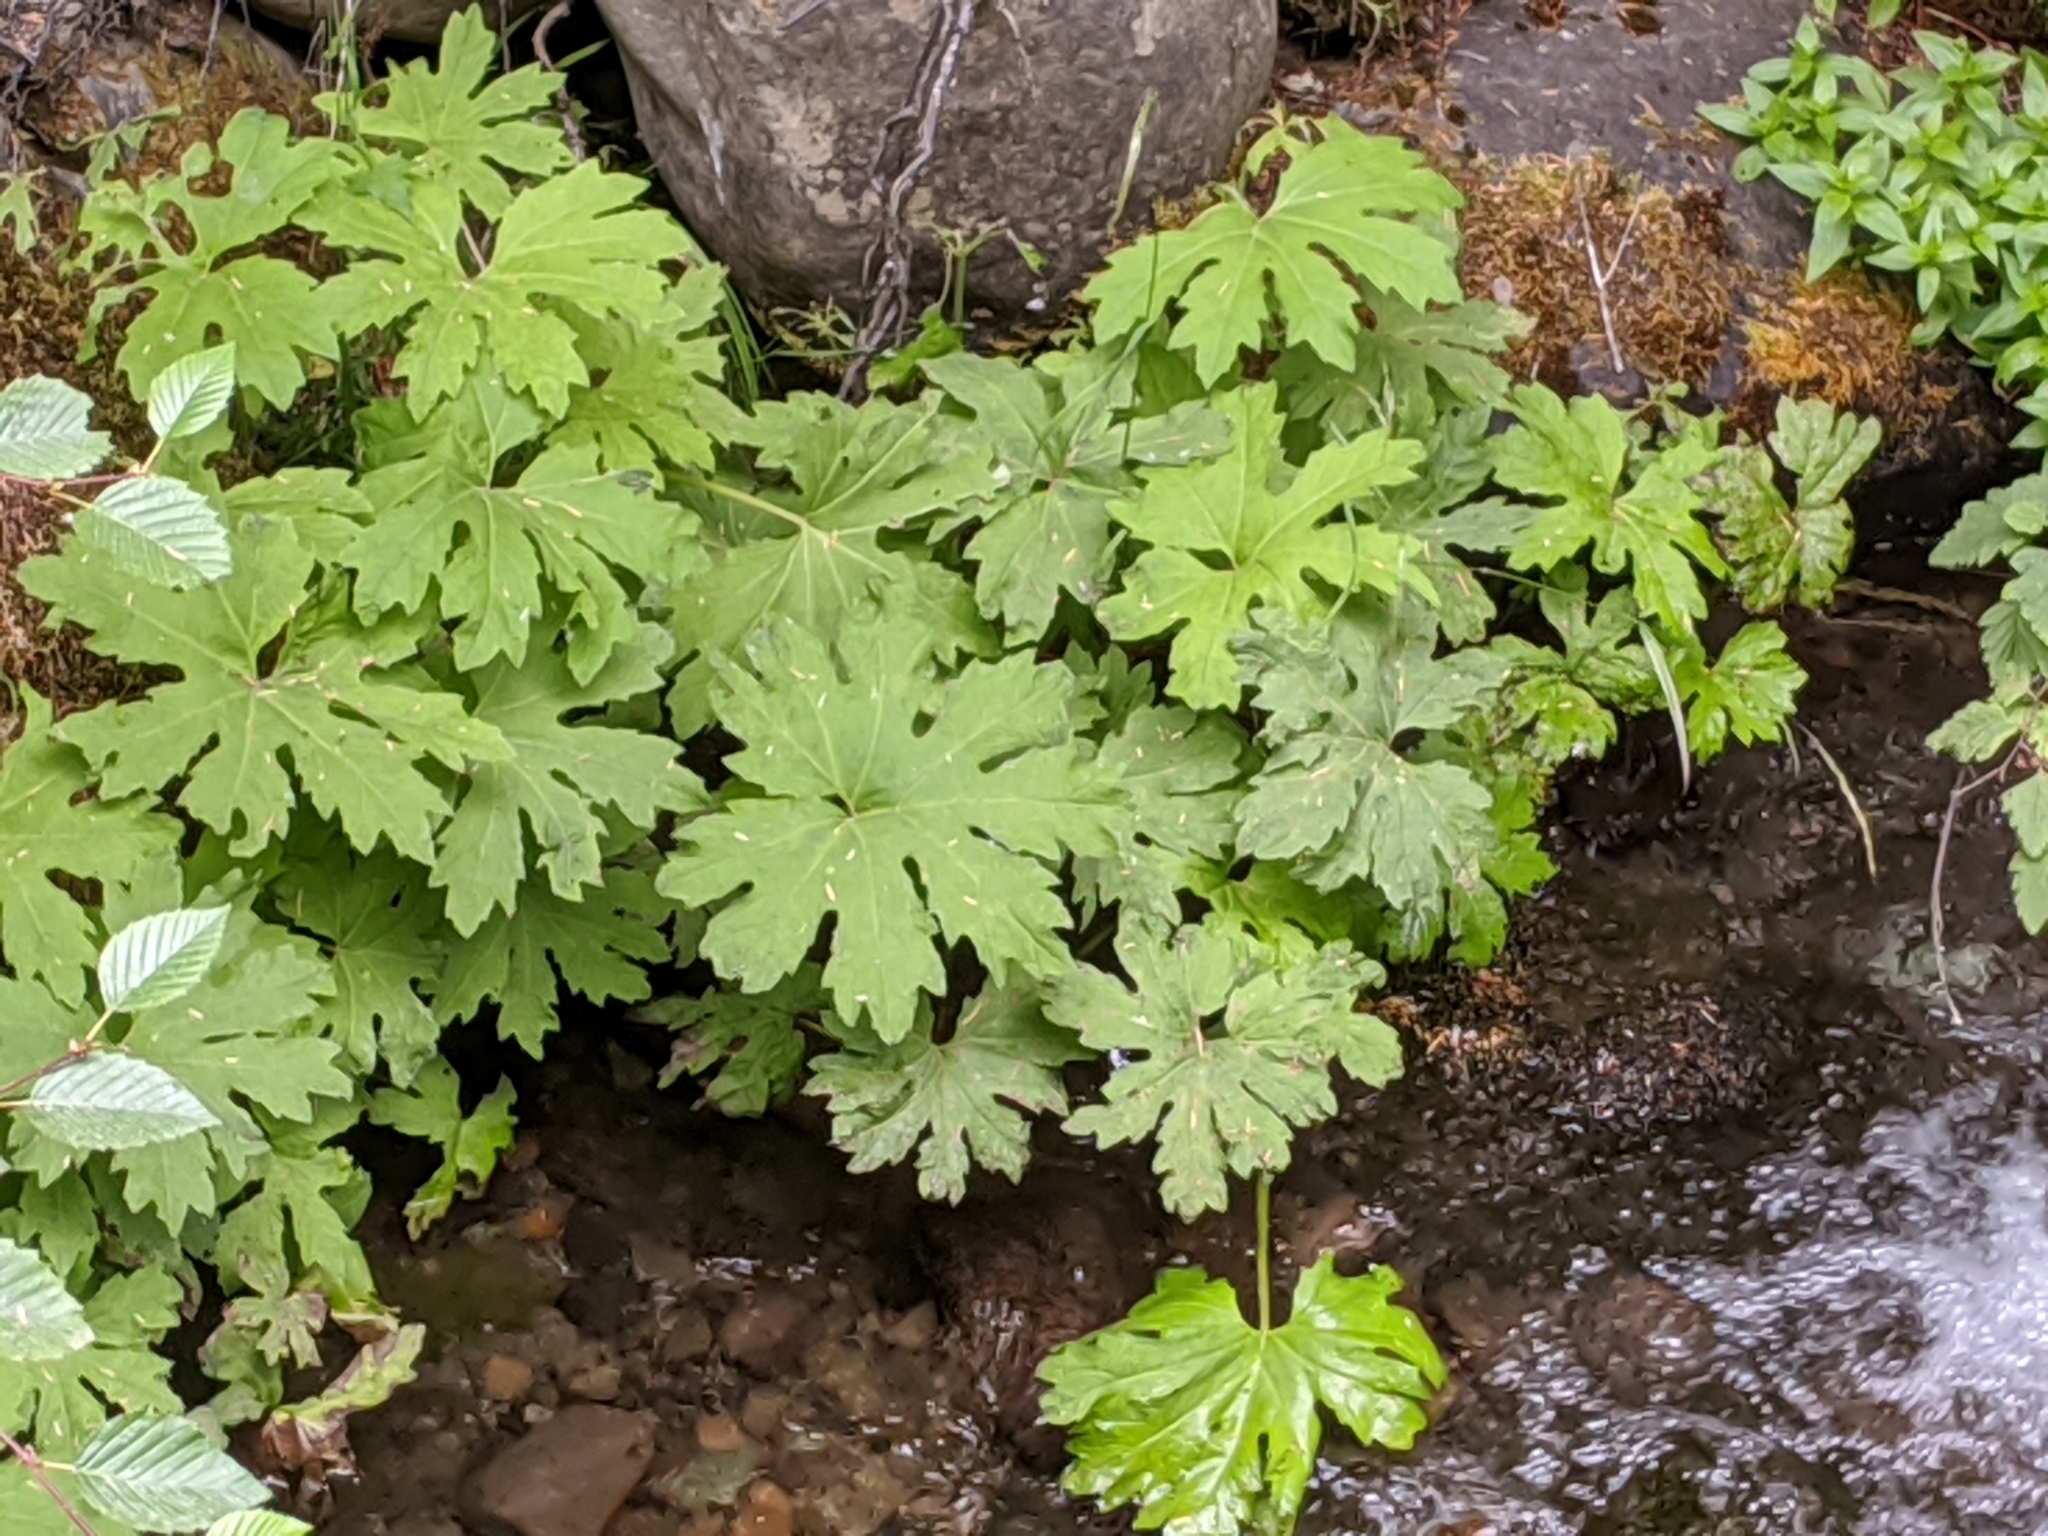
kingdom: Plantae
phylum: Tracheophyta
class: Magnoliopsida
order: Asterales
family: Asteraceae
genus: Petasites
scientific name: Petasites frigidus
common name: Arctic butterbur
